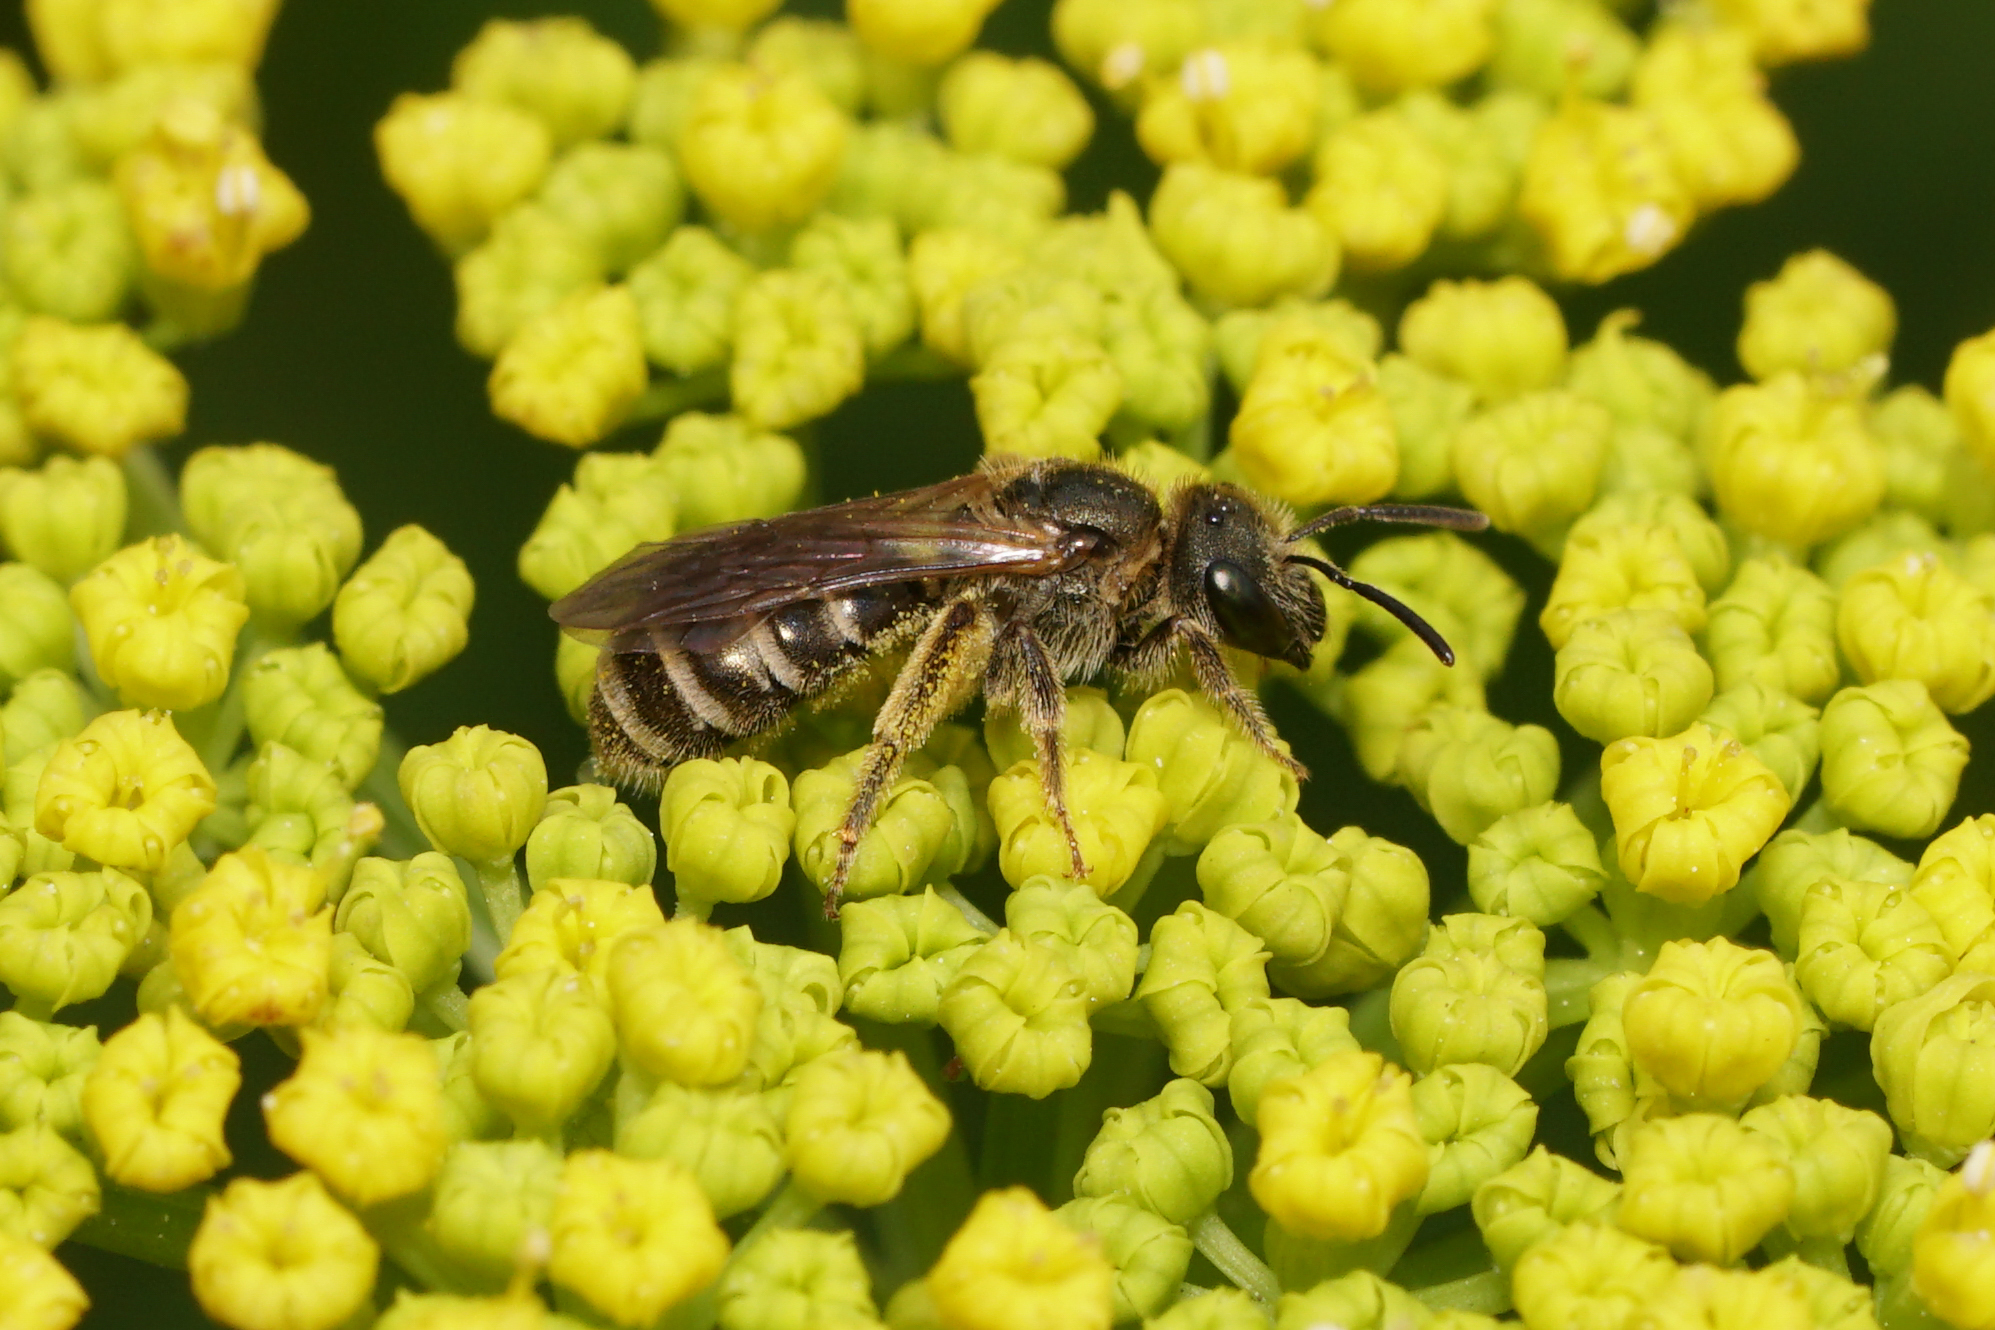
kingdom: Animalia
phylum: Arthropoda
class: Insecta
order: Hymenoptera
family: Halictidae
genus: Halictus
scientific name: Halictus confusus
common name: Southern bronze furrow bee
